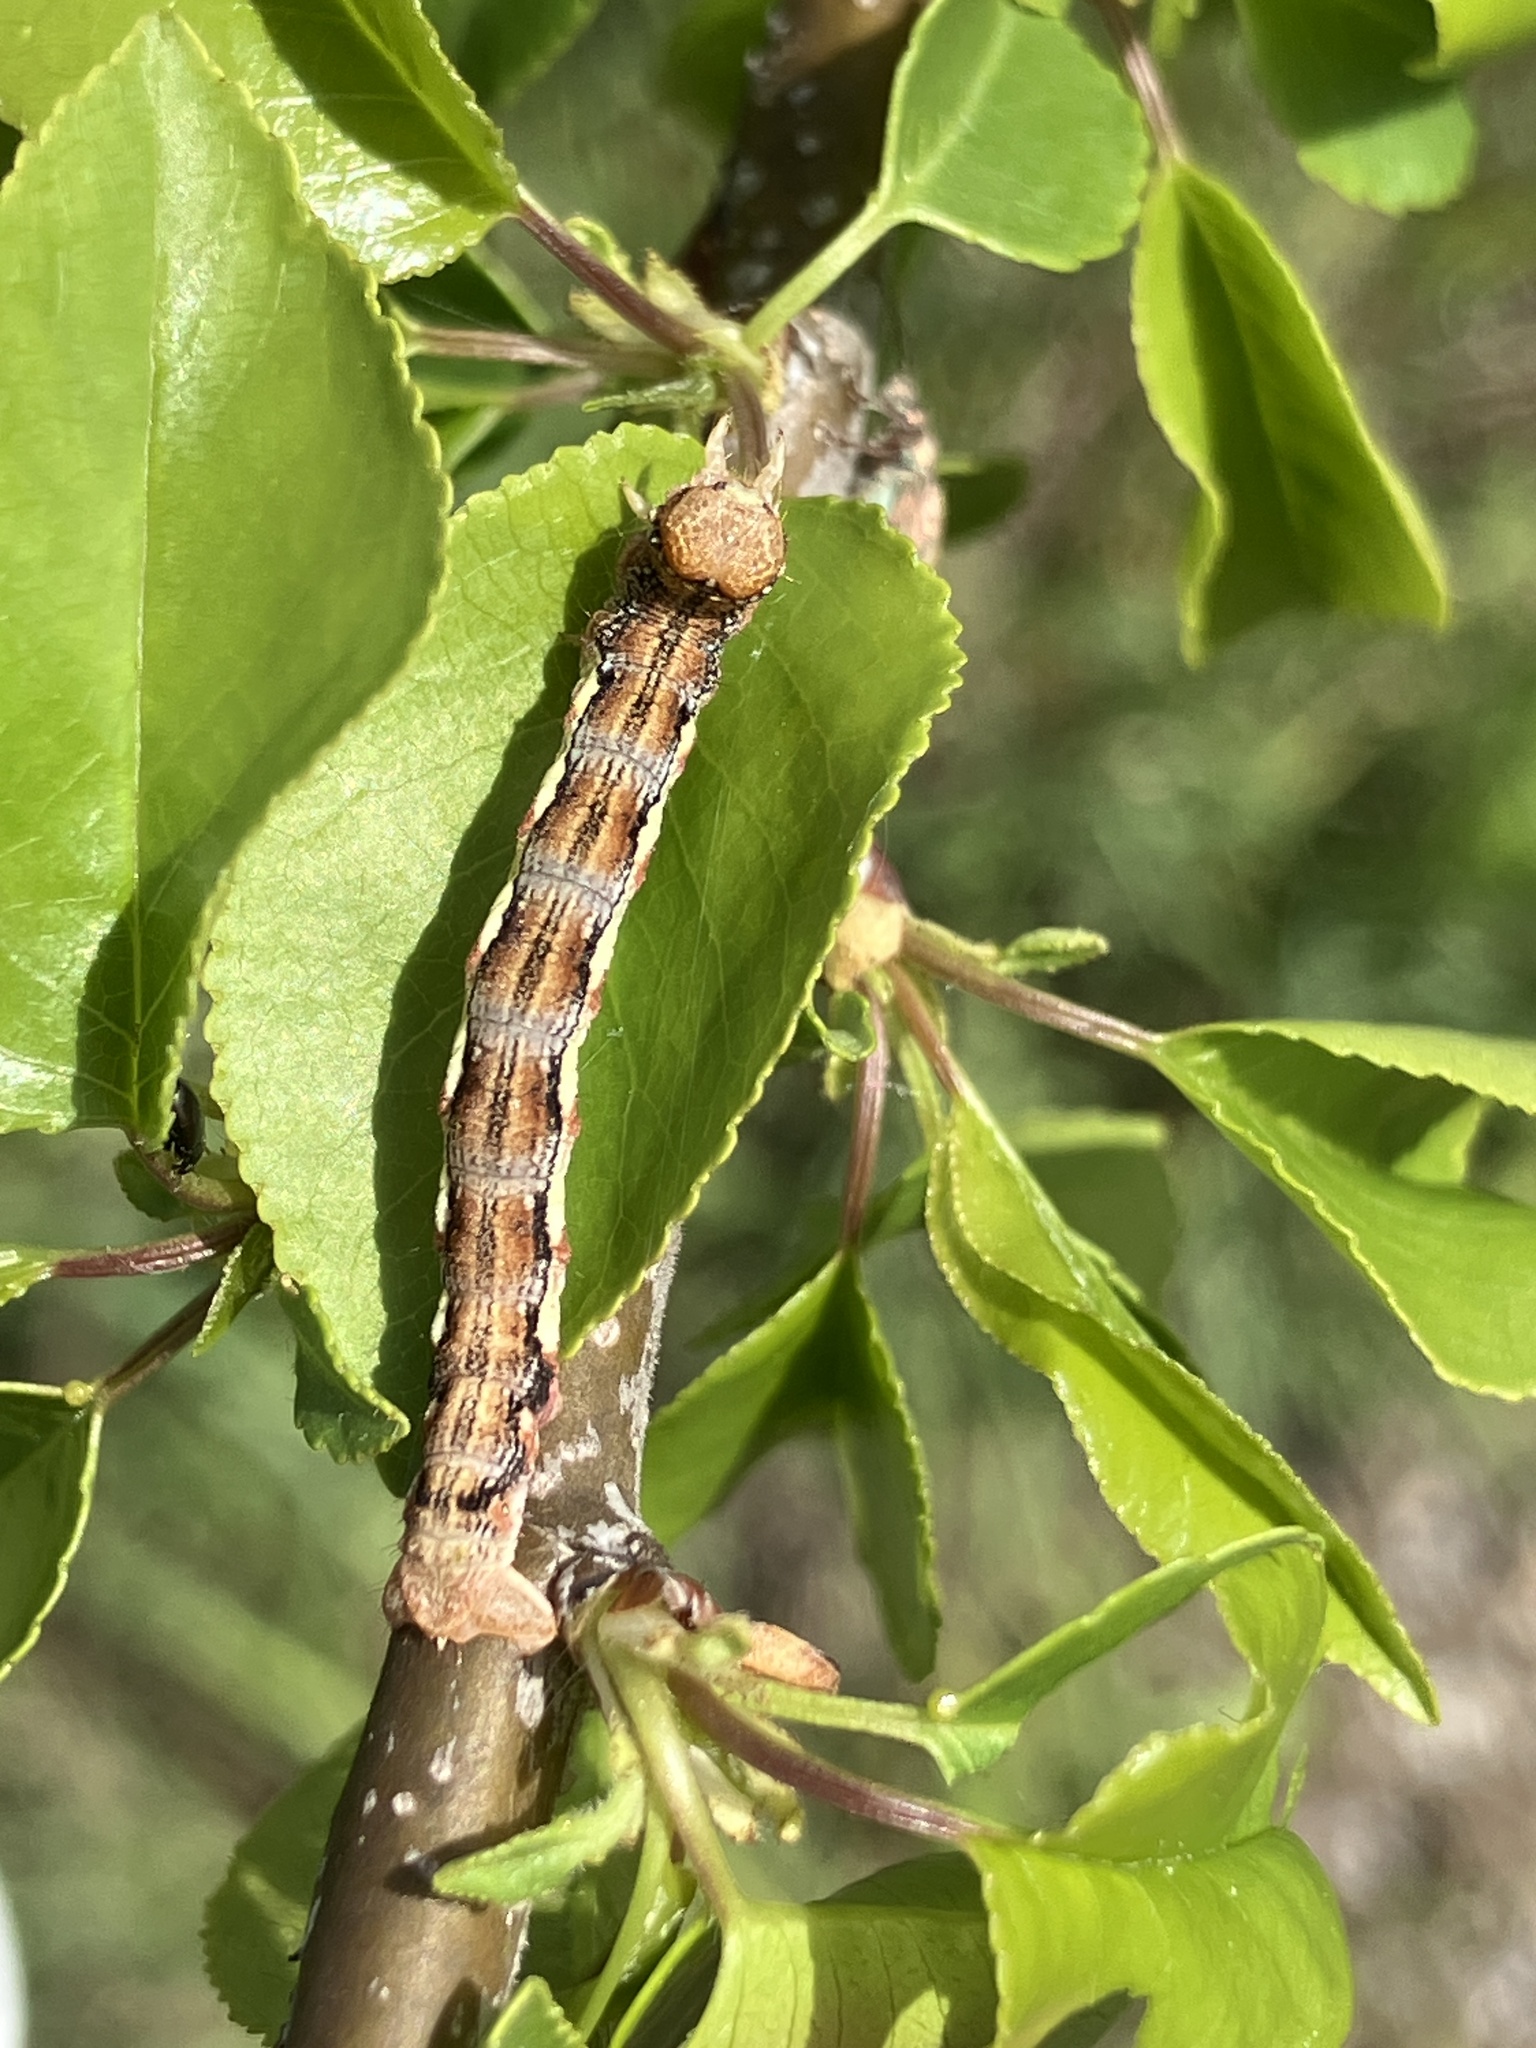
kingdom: Animalia
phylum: Arthropoda
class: Insecta
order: Lepidoptera
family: Geometridae
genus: Erannis
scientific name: Erannis defoliaria
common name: Mottled umber
